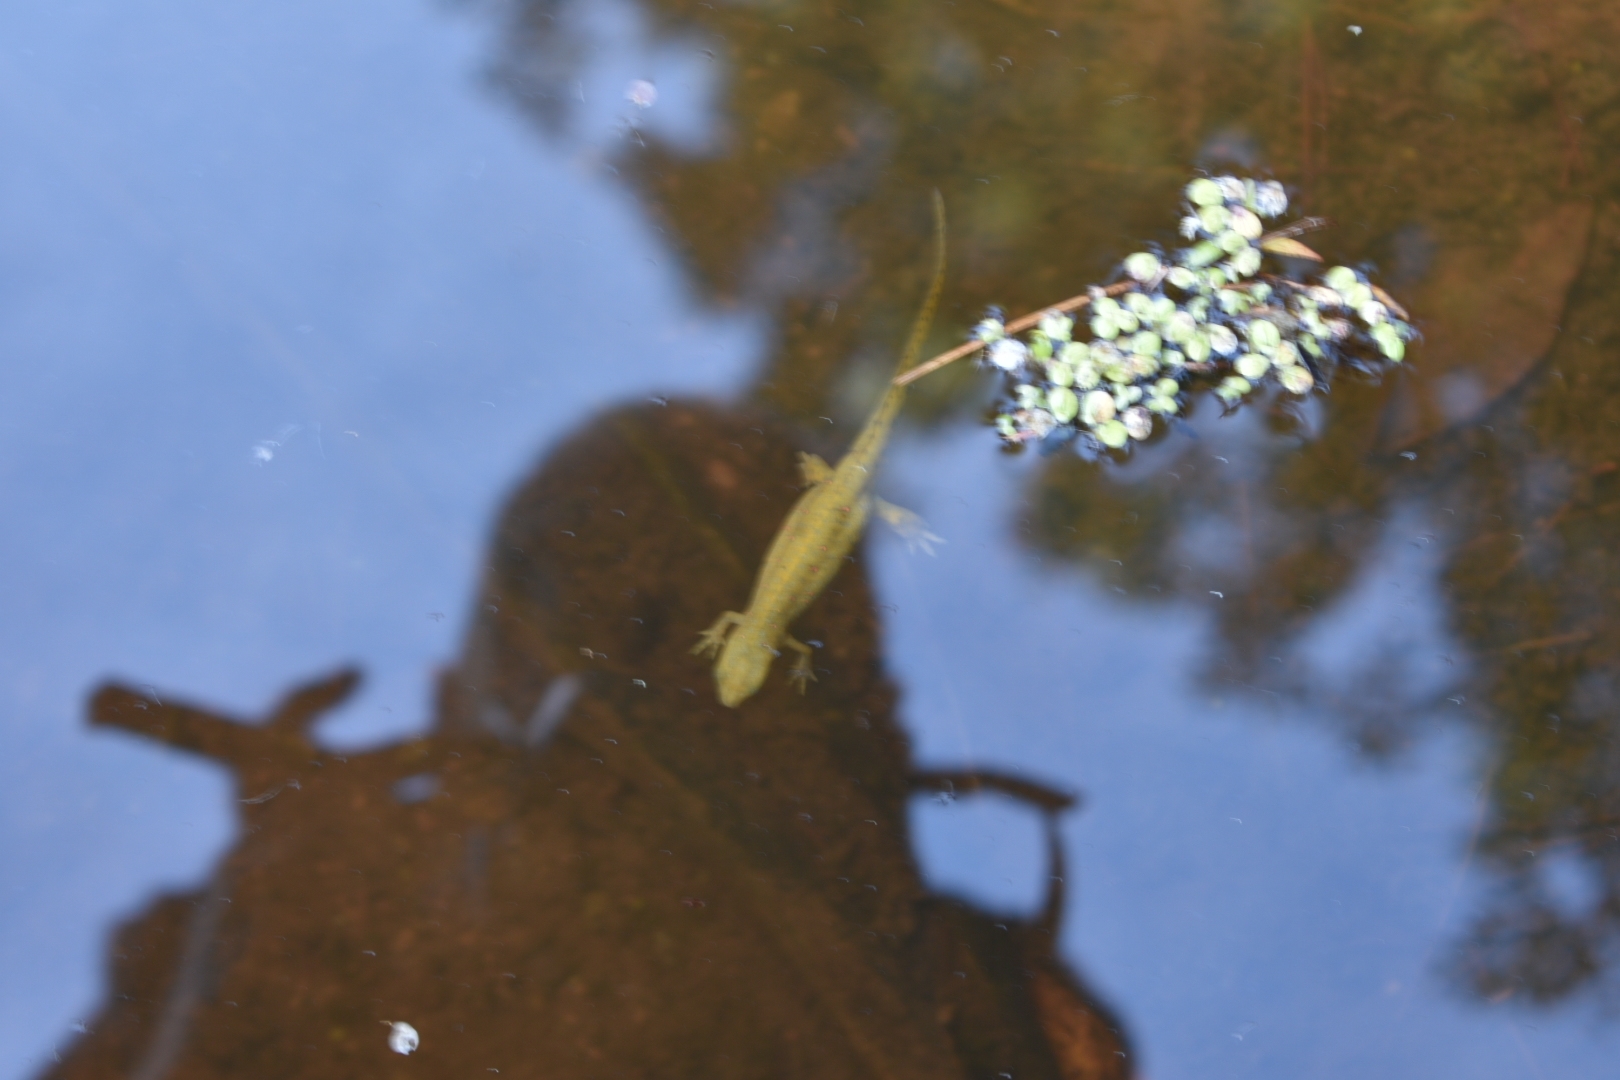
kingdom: Animalia
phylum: Chordata
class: Amphibia
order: Caudata
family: Salamandridae
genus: Notophthalmus
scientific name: Notophthalmus viridescens
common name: Eastern newt
